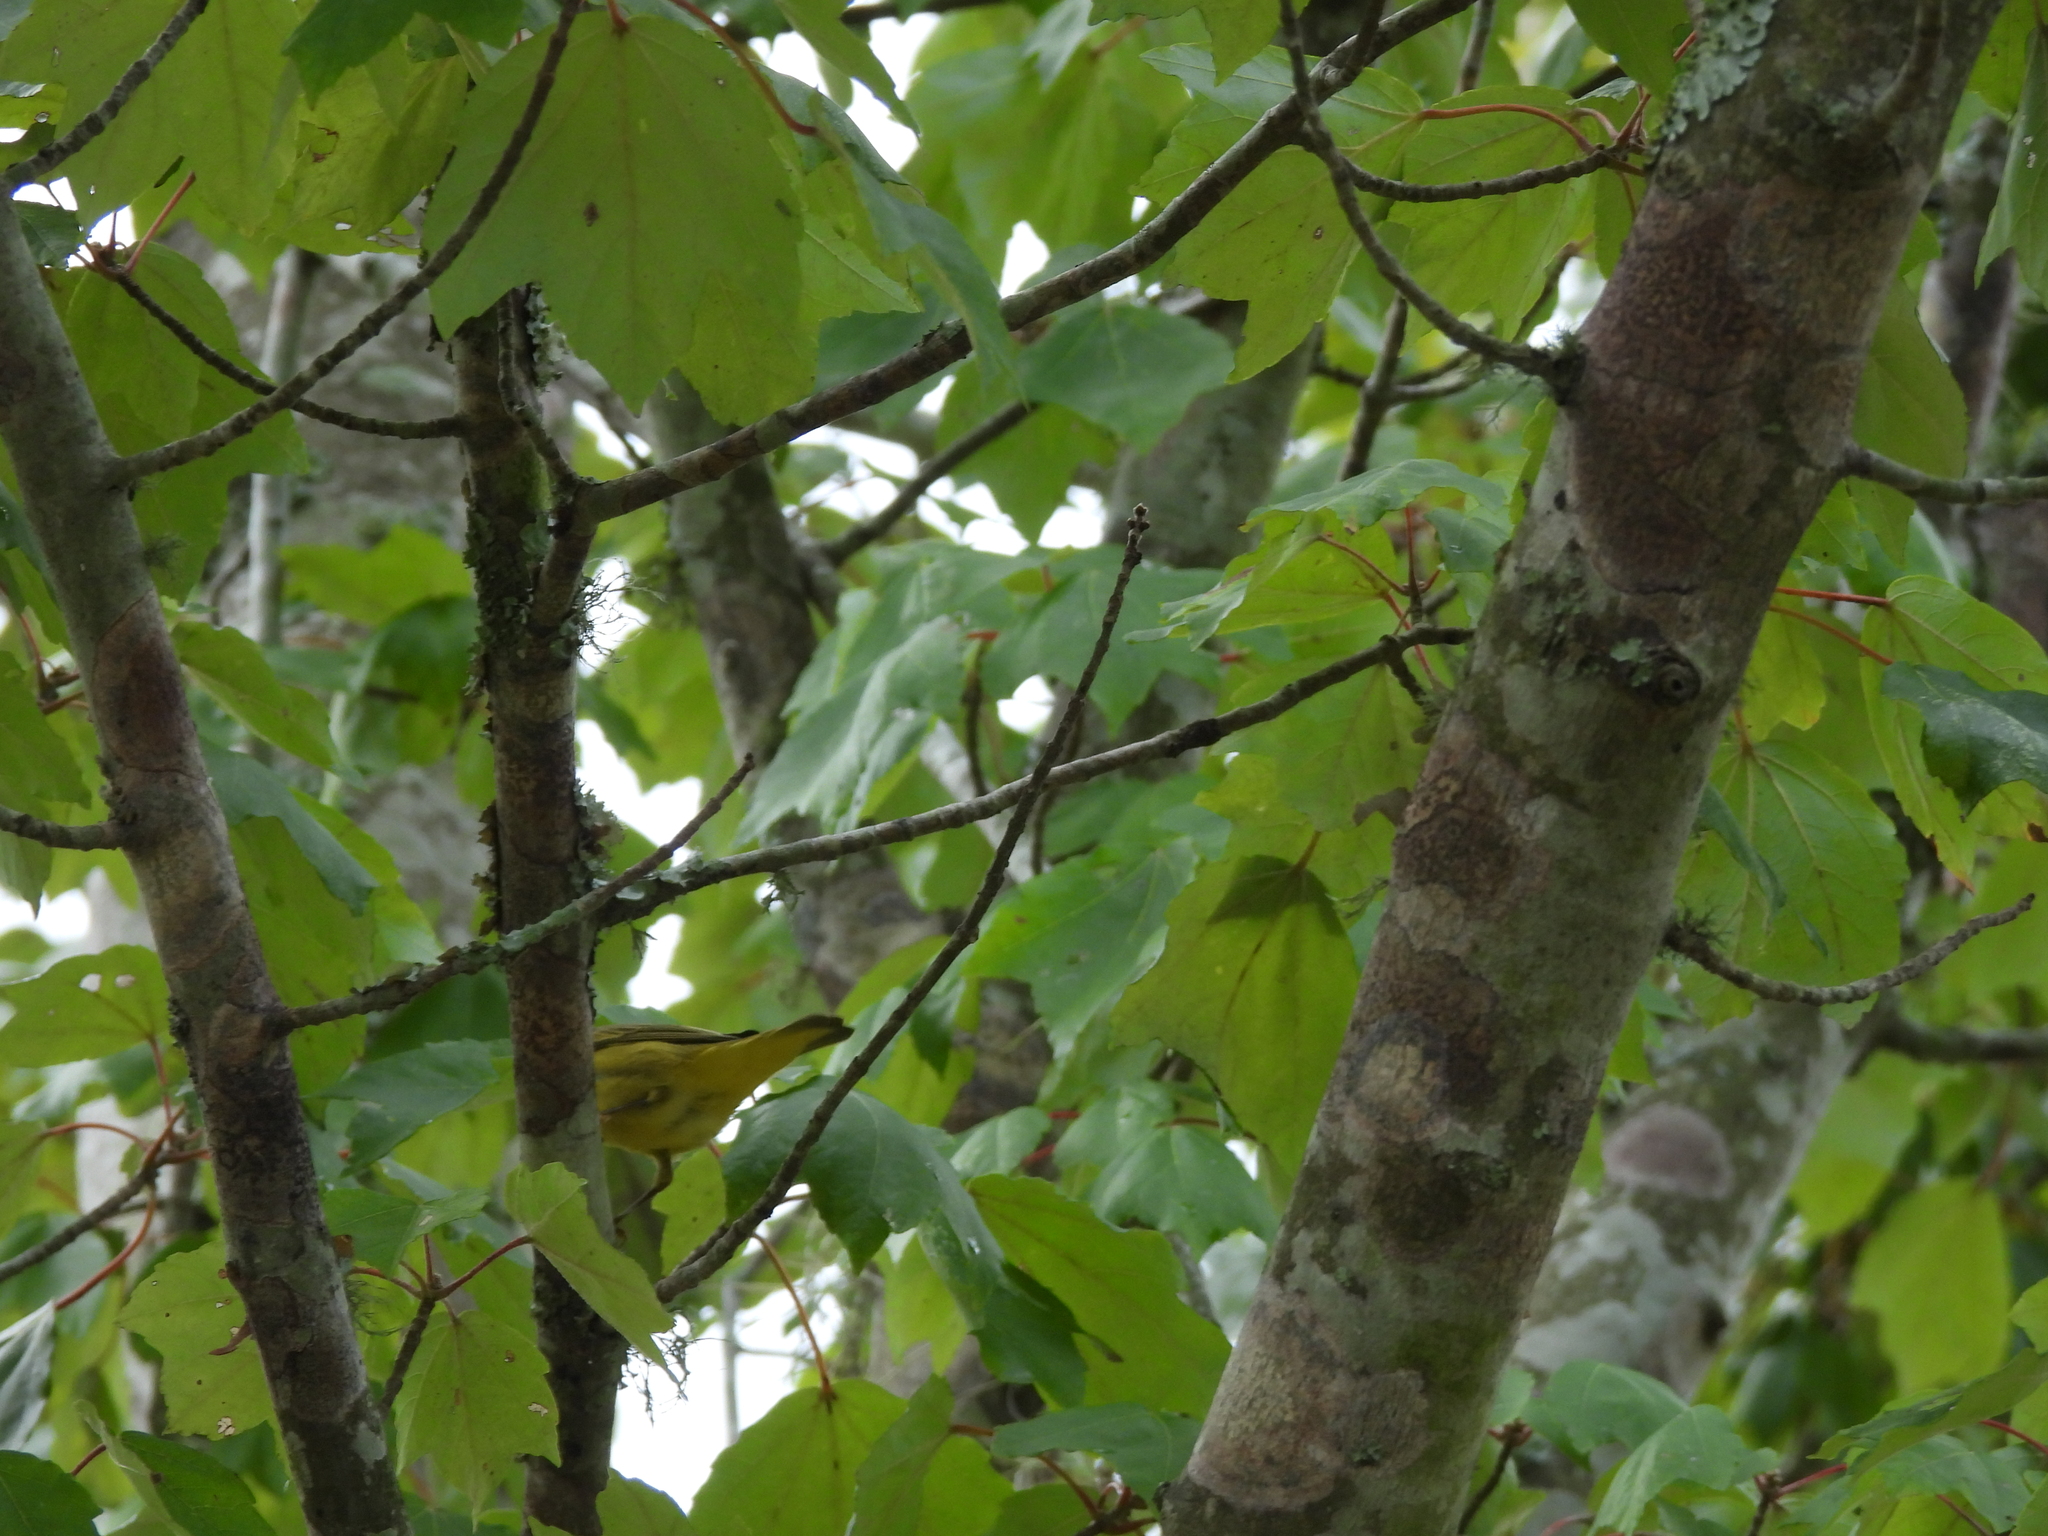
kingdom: Animalia
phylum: Chordata
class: Aves
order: Passeriformes
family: Parulidae
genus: Setophaga
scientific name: Setophaga petechia
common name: Yellow warbler
